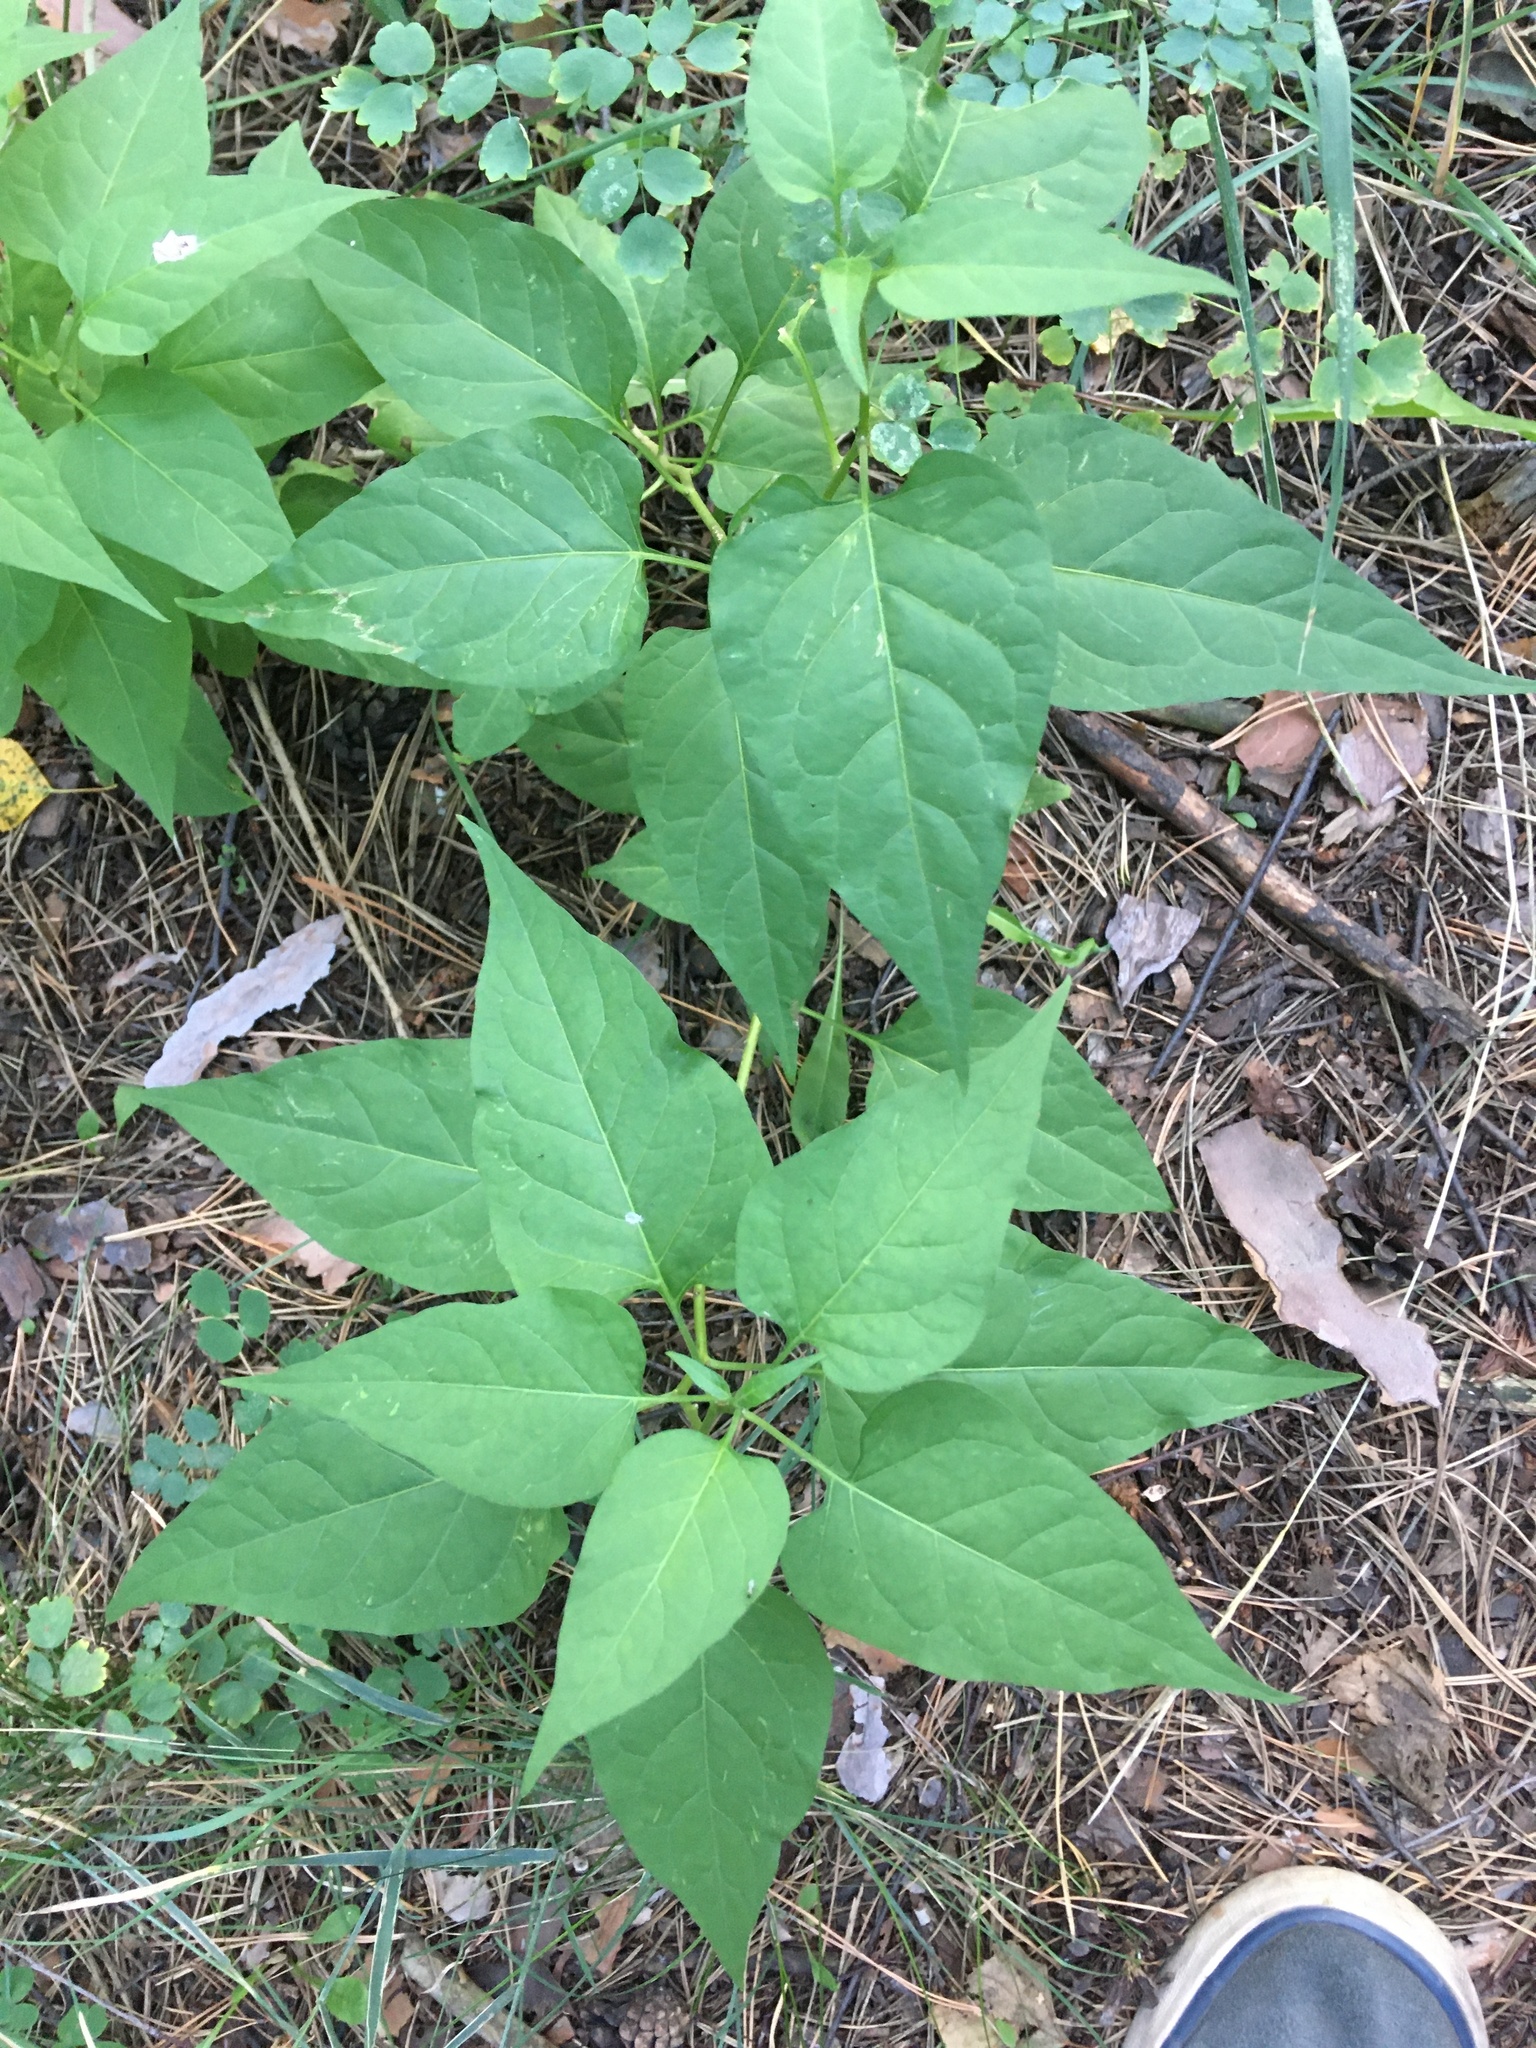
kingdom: Plantae
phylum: Tracheophyta
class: Magnoliopsida
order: Solanales
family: Solanaceae
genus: Solanum
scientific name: Solanum dulcamara
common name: Climbing nightshade
